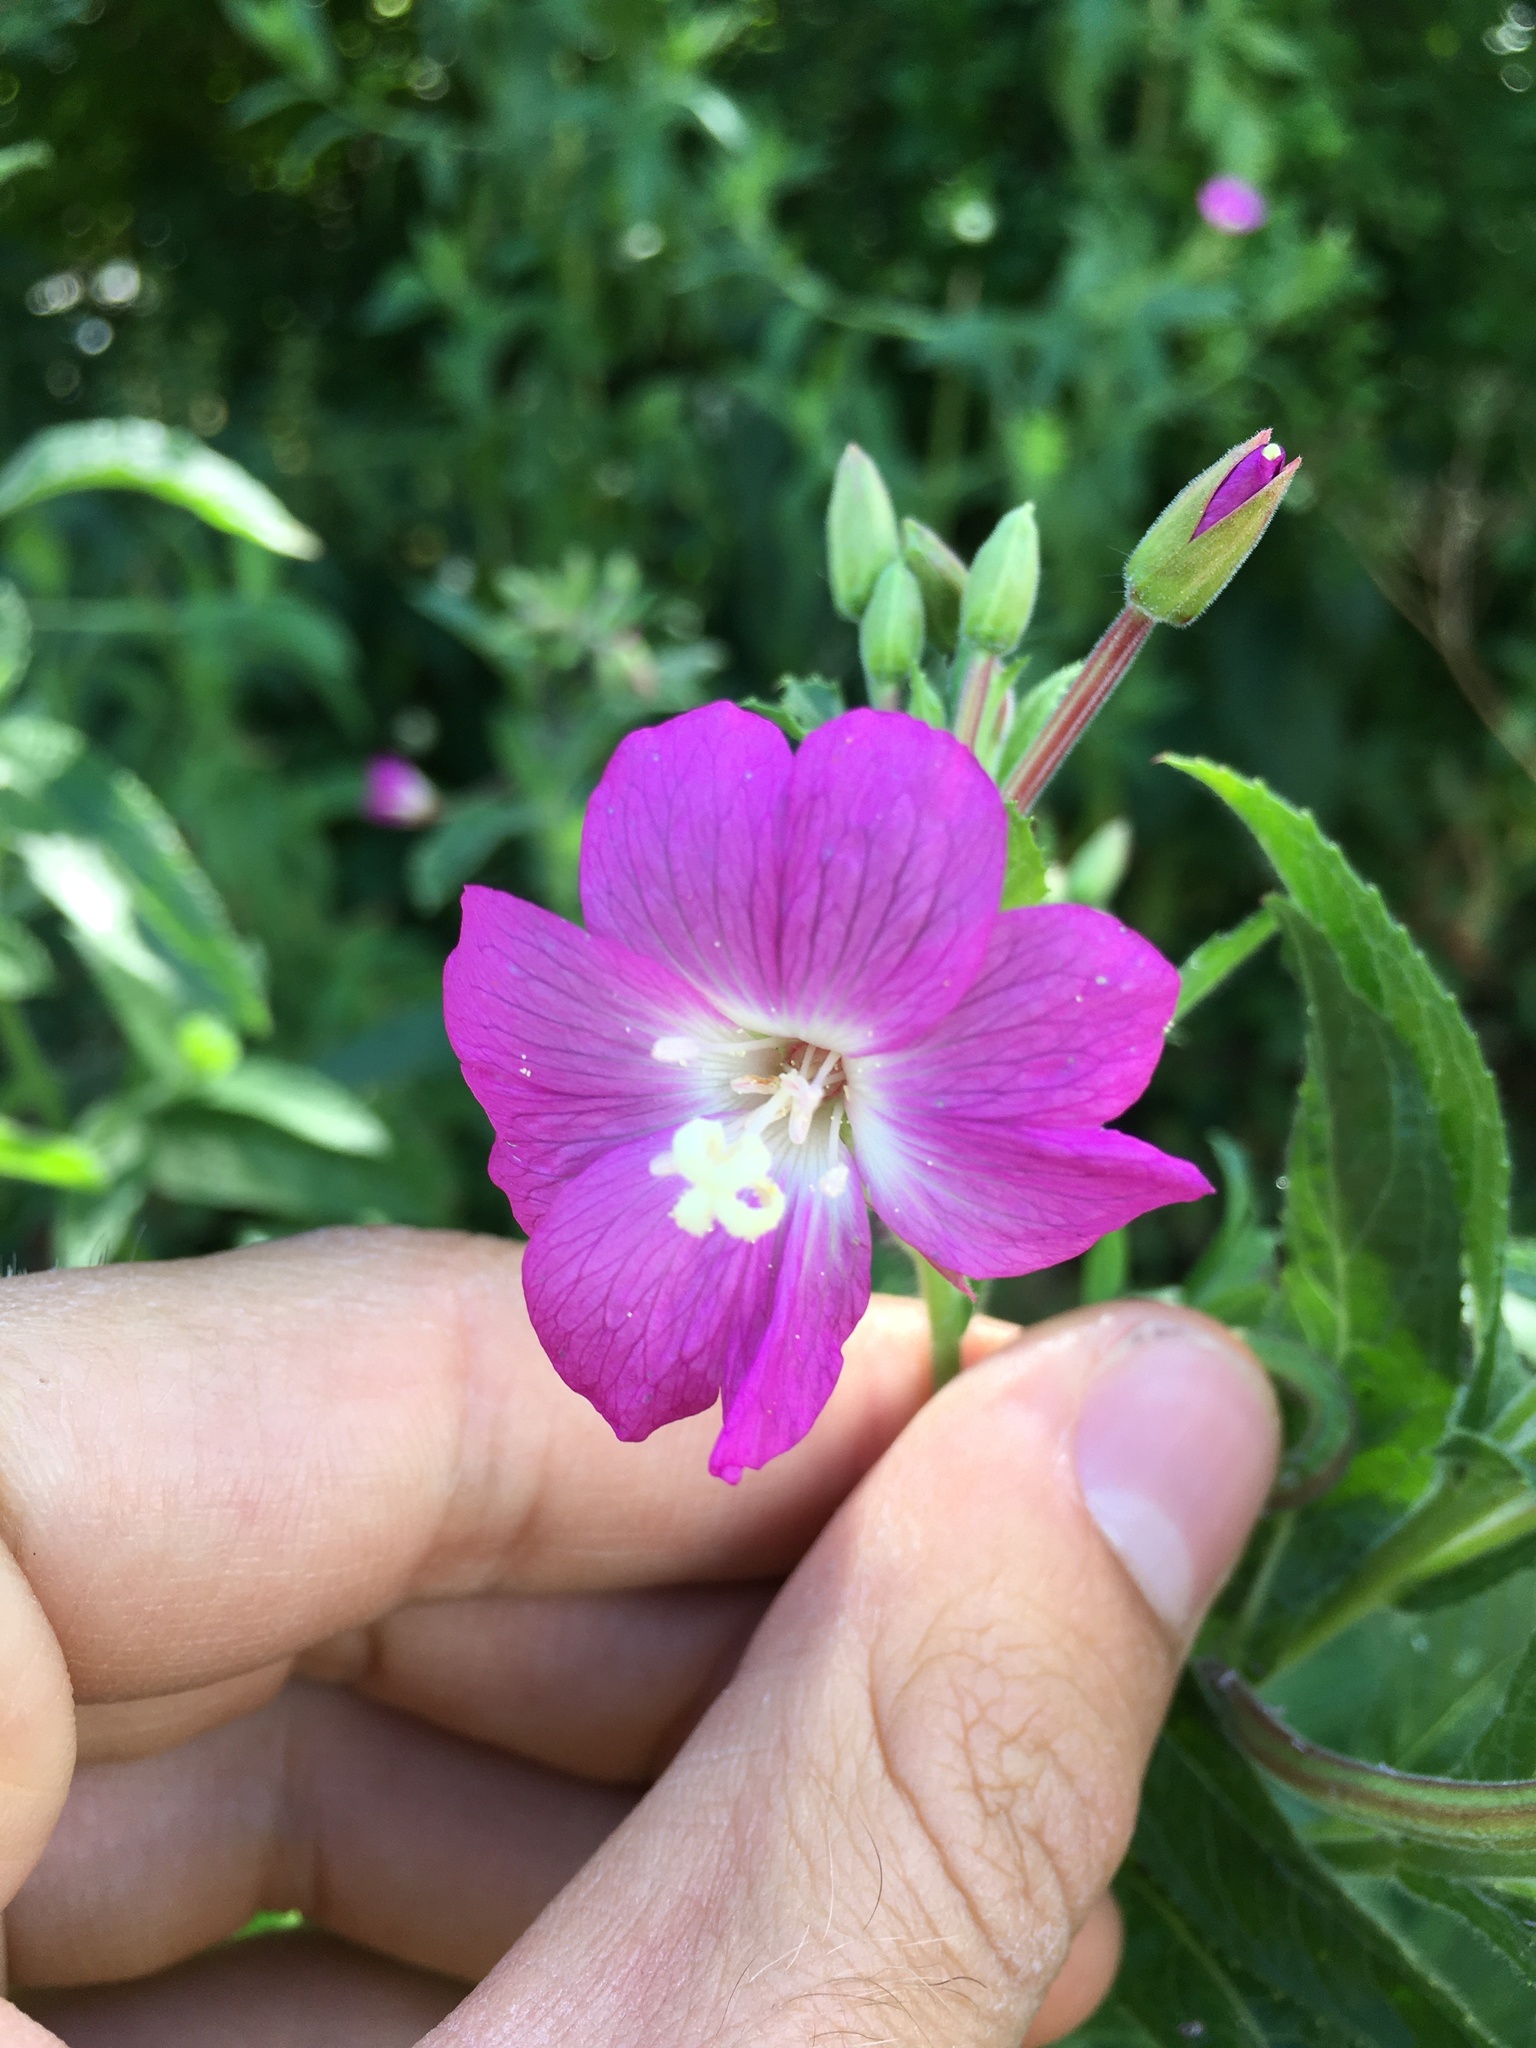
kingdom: Plantae
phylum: Tracheophyta
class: Magnoliopsida
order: Myrtales
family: Onagraceae
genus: Epilobium
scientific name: Epilobium hirsutum
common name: Great willowherb
